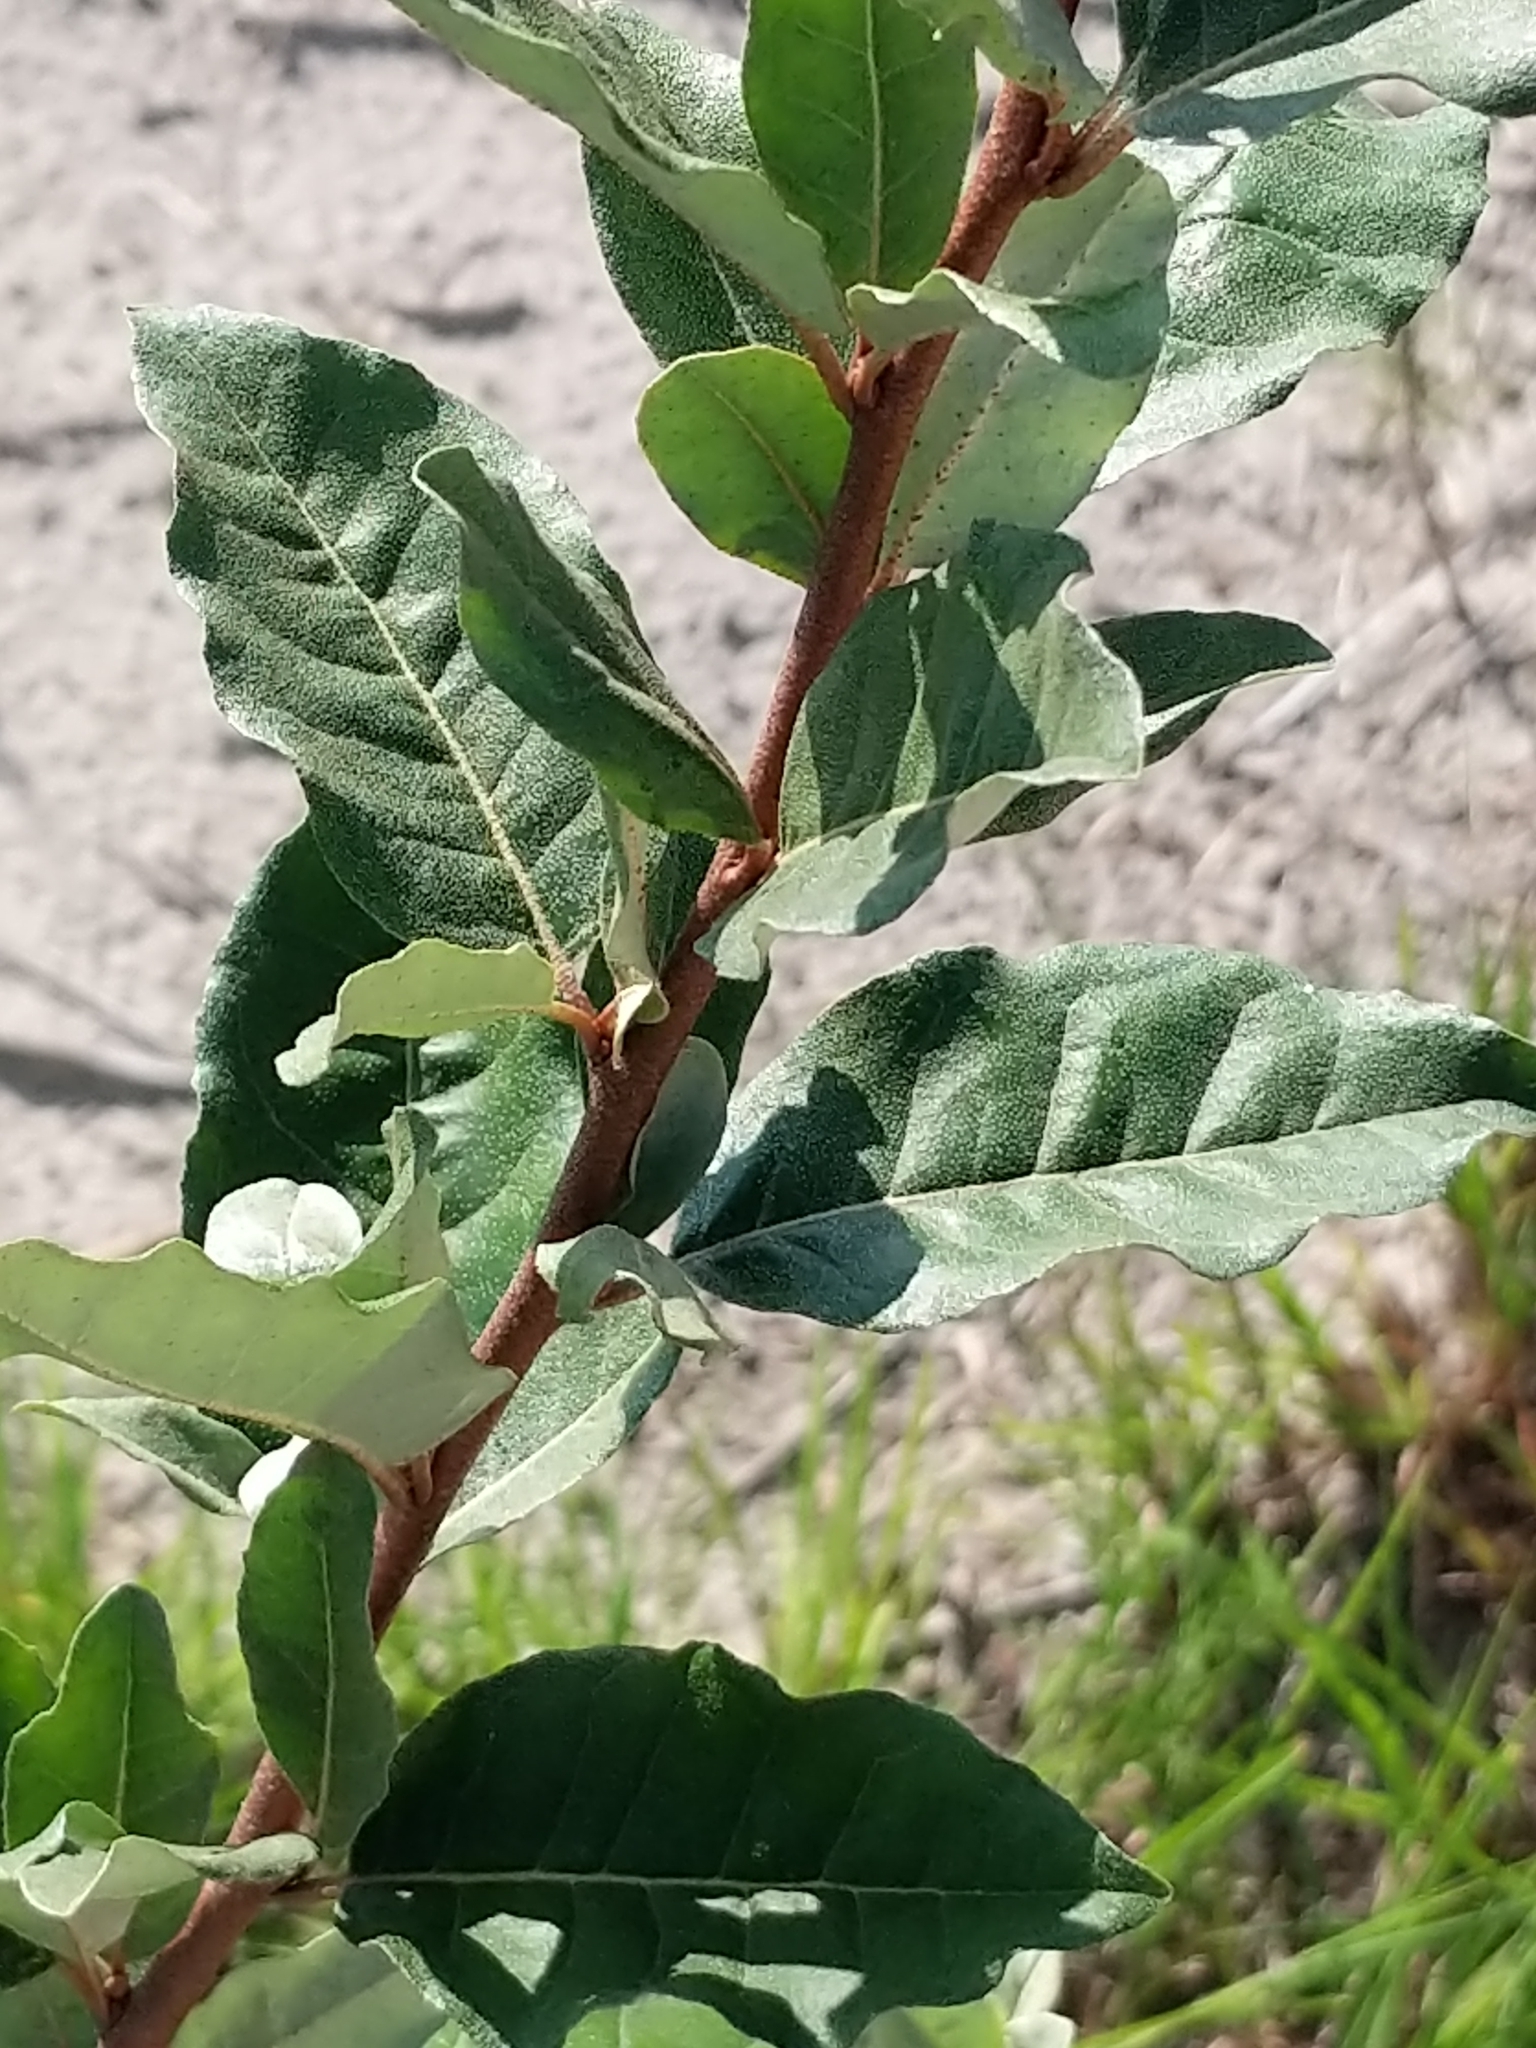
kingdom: Plantae
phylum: Tracheophyta
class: Magnoliopsida
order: Rosales
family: Elaeagnaceae
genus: Elaeagnus
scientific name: Elaeagnus umbellata
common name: Autumn olive
